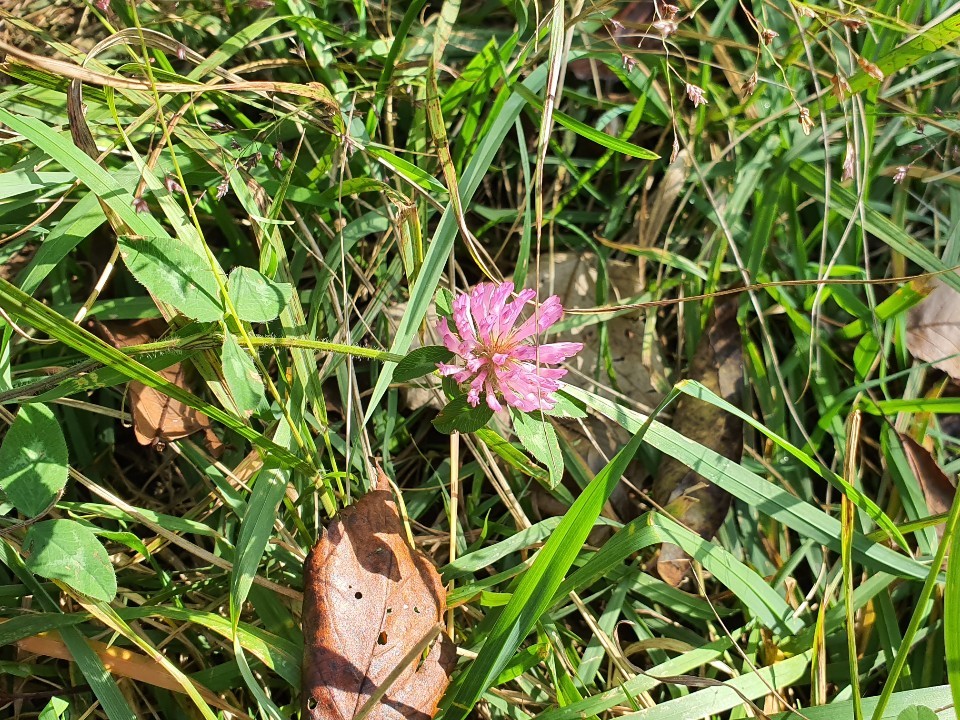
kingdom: Plantae
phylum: Tracheophyta
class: Magnoliopsida
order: Fabales
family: Fabaceae
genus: Trifolium
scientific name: Trifolium pratense
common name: Red clover
